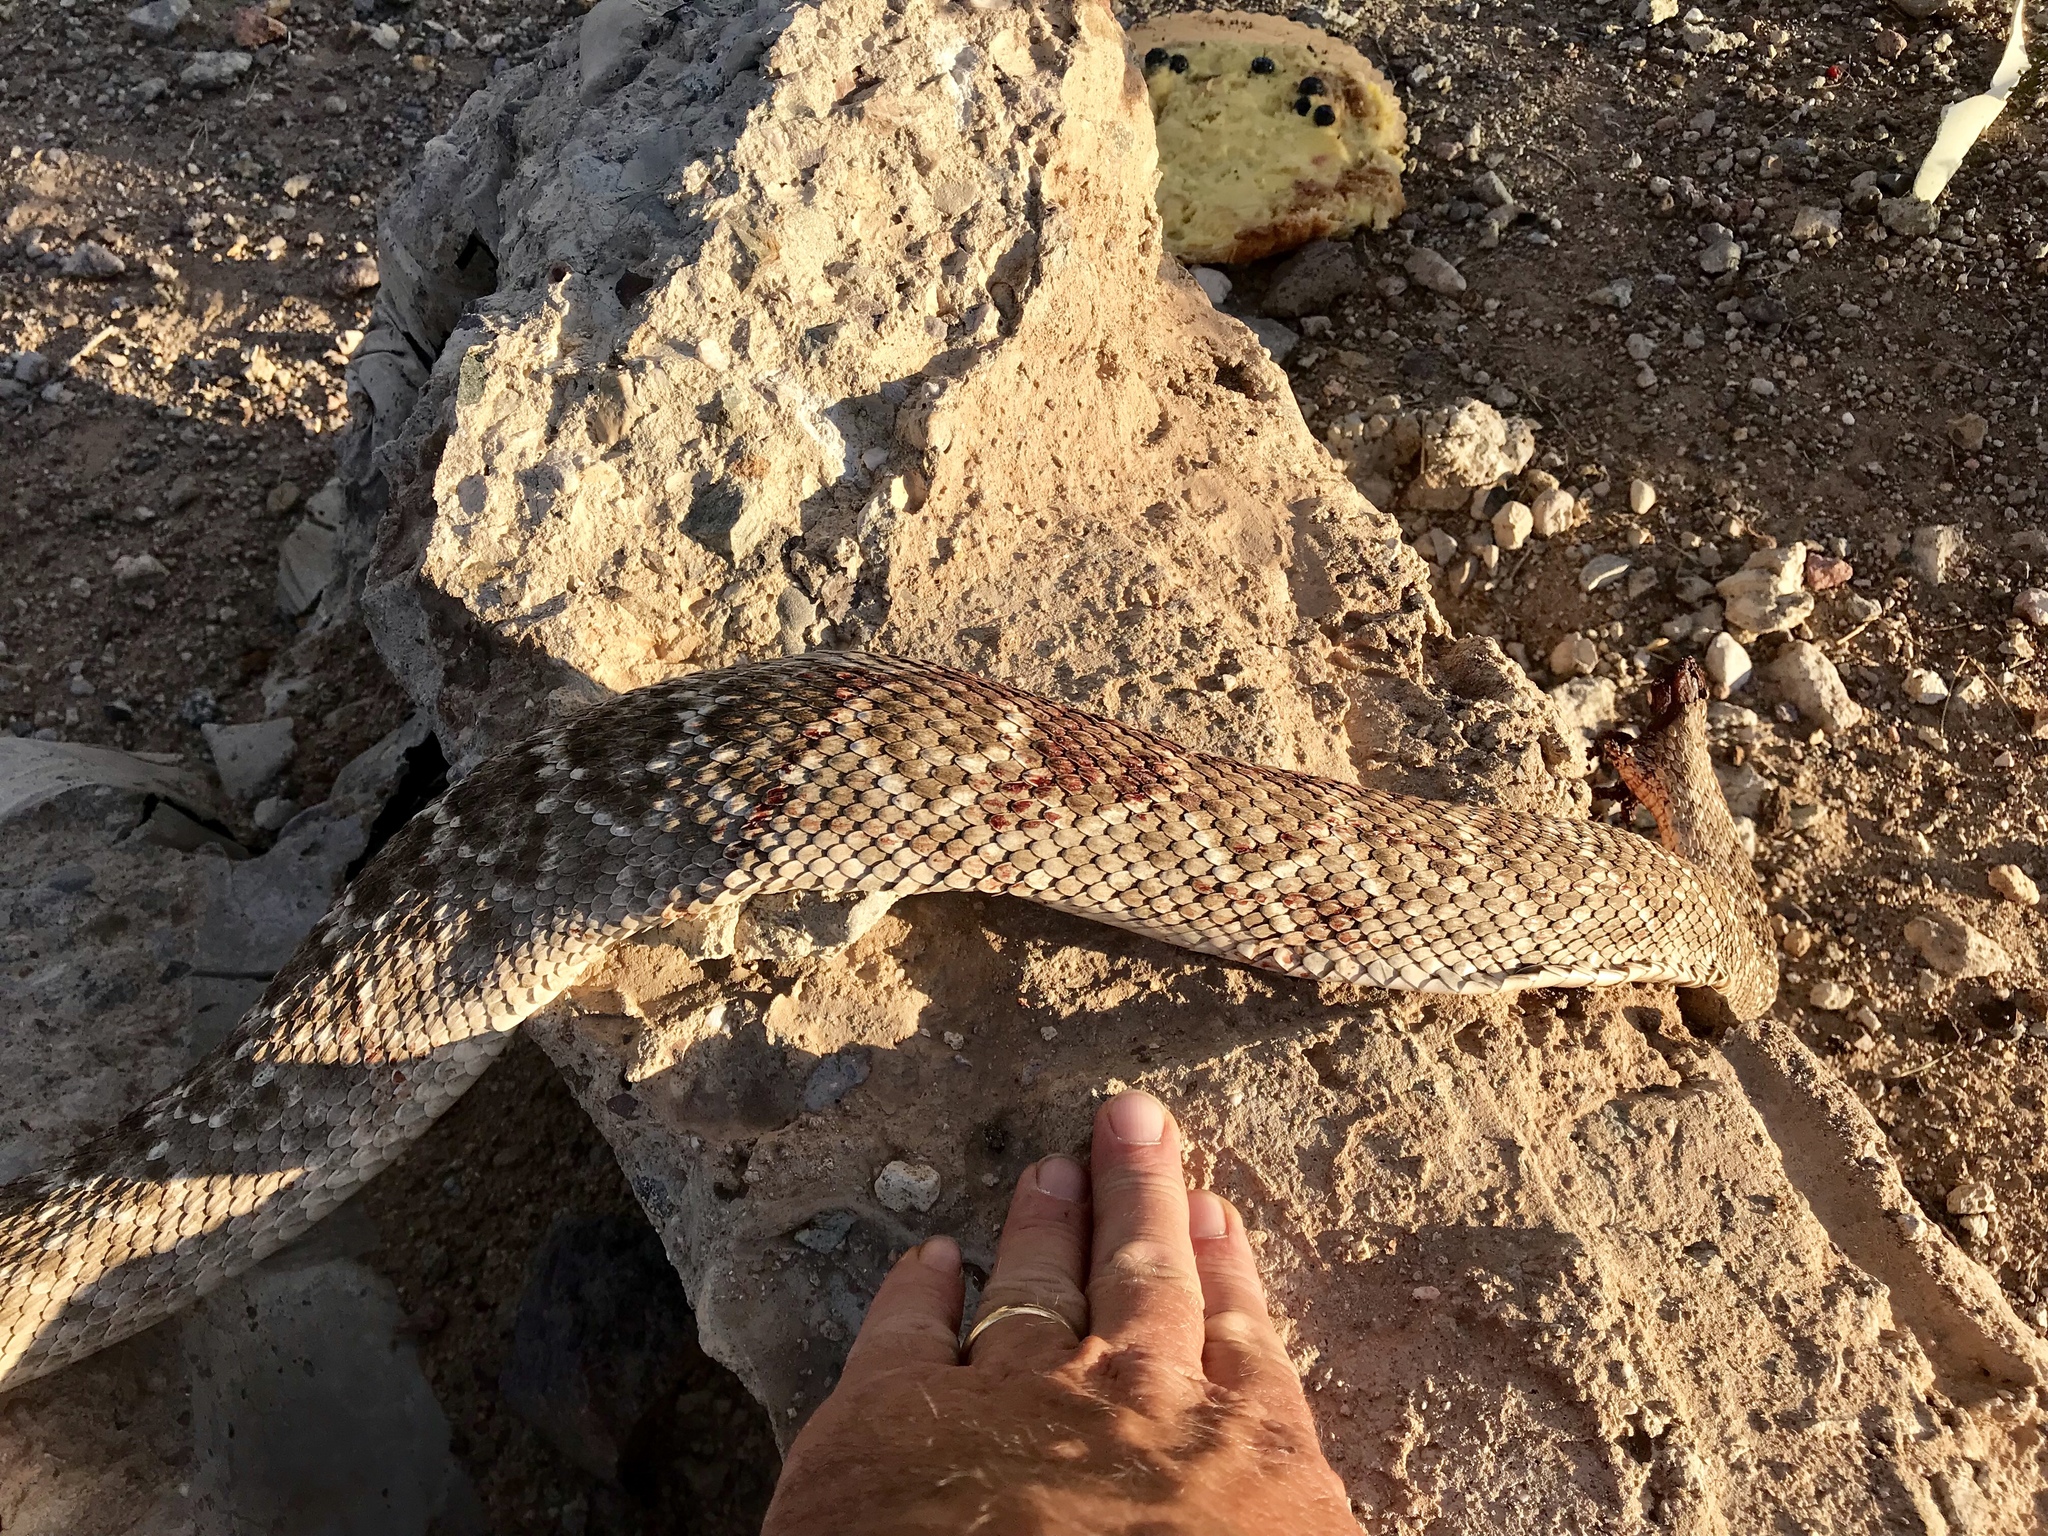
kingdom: Animalia
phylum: Chordata
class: Squamata
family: Viperidae
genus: Crotalus
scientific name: Crotalus atrox
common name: Western diamond-backed rattlesnake
